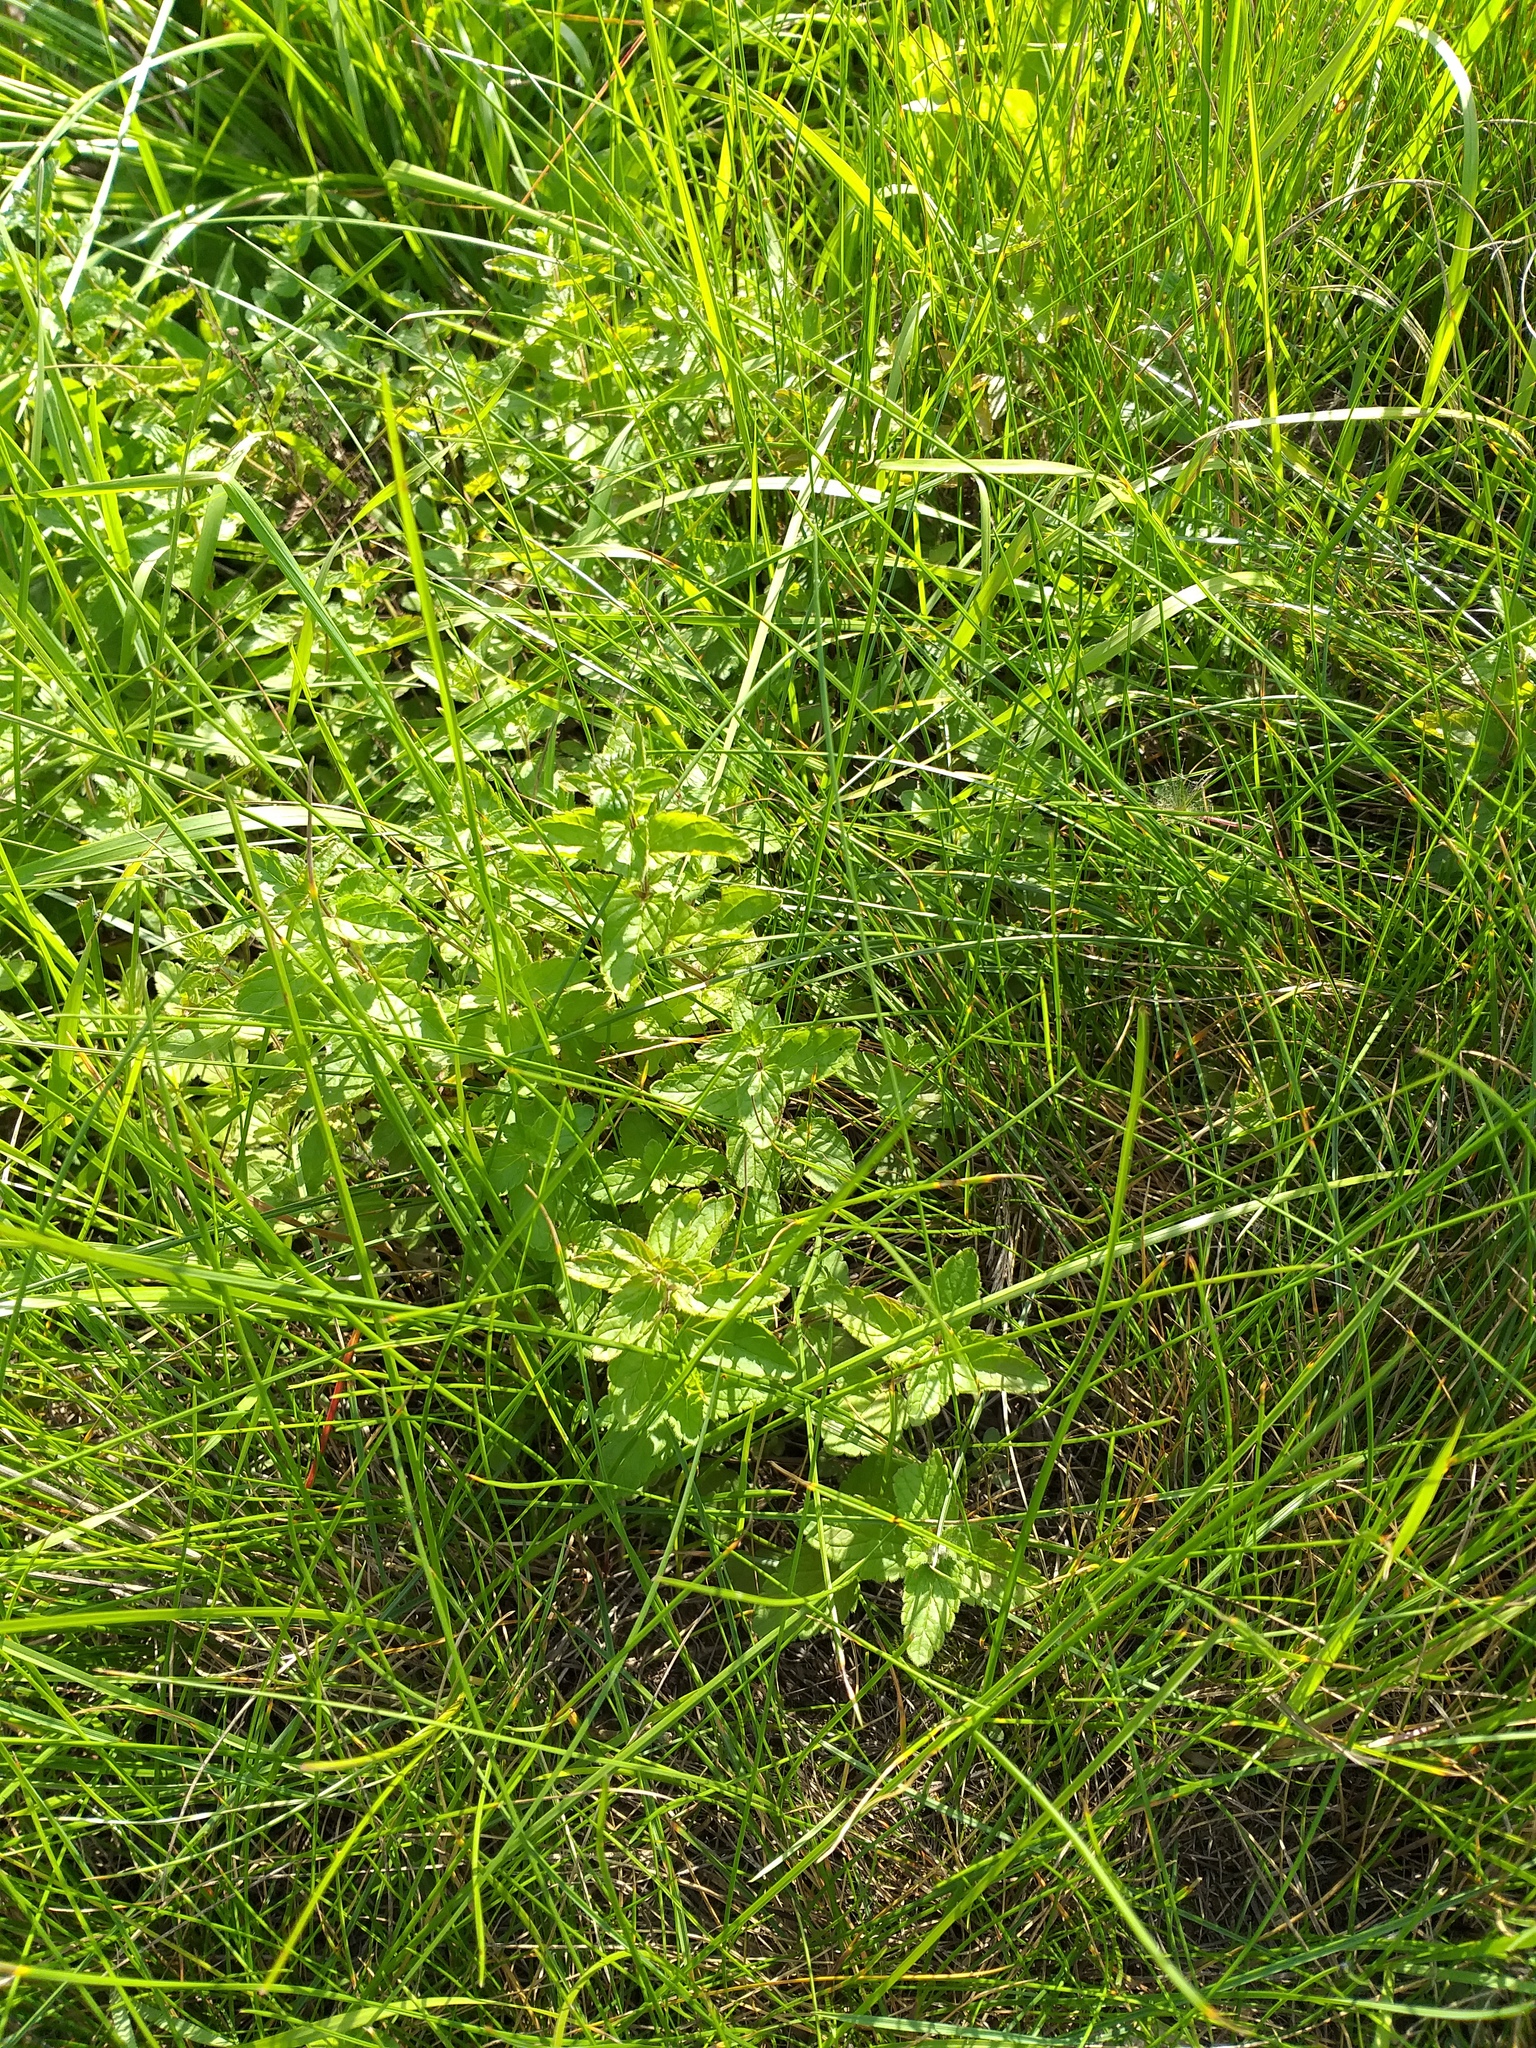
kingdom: Plantae
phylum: Tracheophyta
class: Magnoliopsida
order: Lamiales
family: Plantaginaceae
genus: Veronica
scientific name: Veronica chamaedrys
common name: Germander speedwell
